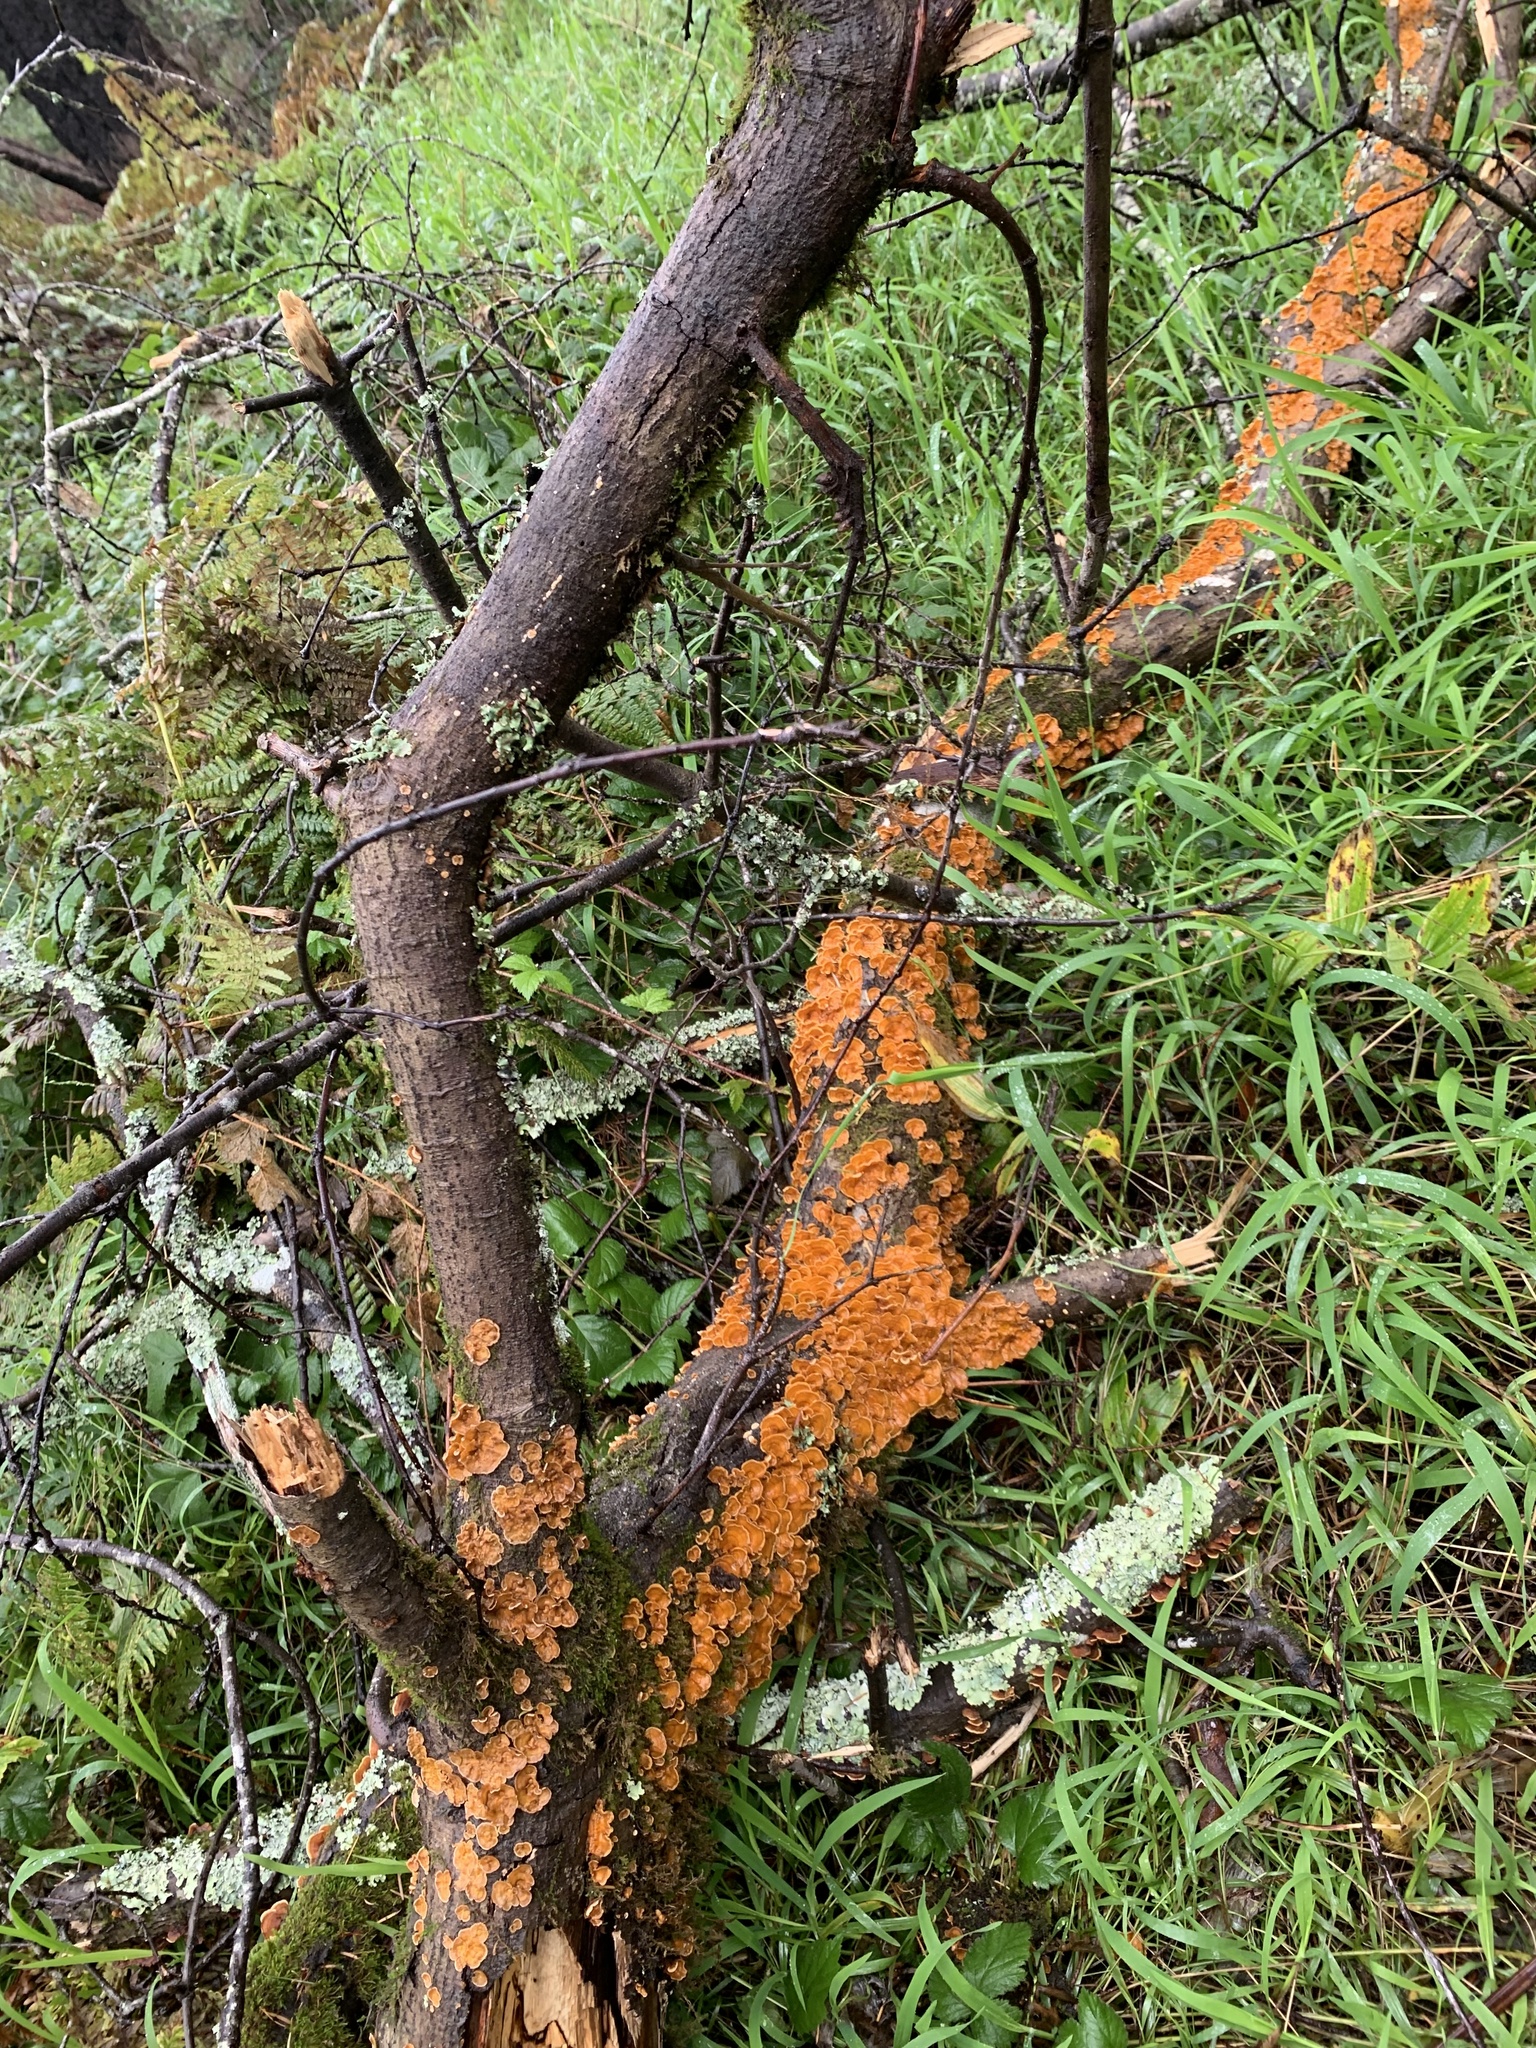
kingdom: Fungi
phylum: Basidiomycota
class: Agaricomycetes
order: Russulales
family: Stereaceae
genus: Stereum
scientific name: Stereum hirsutum
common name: Hairy curtain crust
